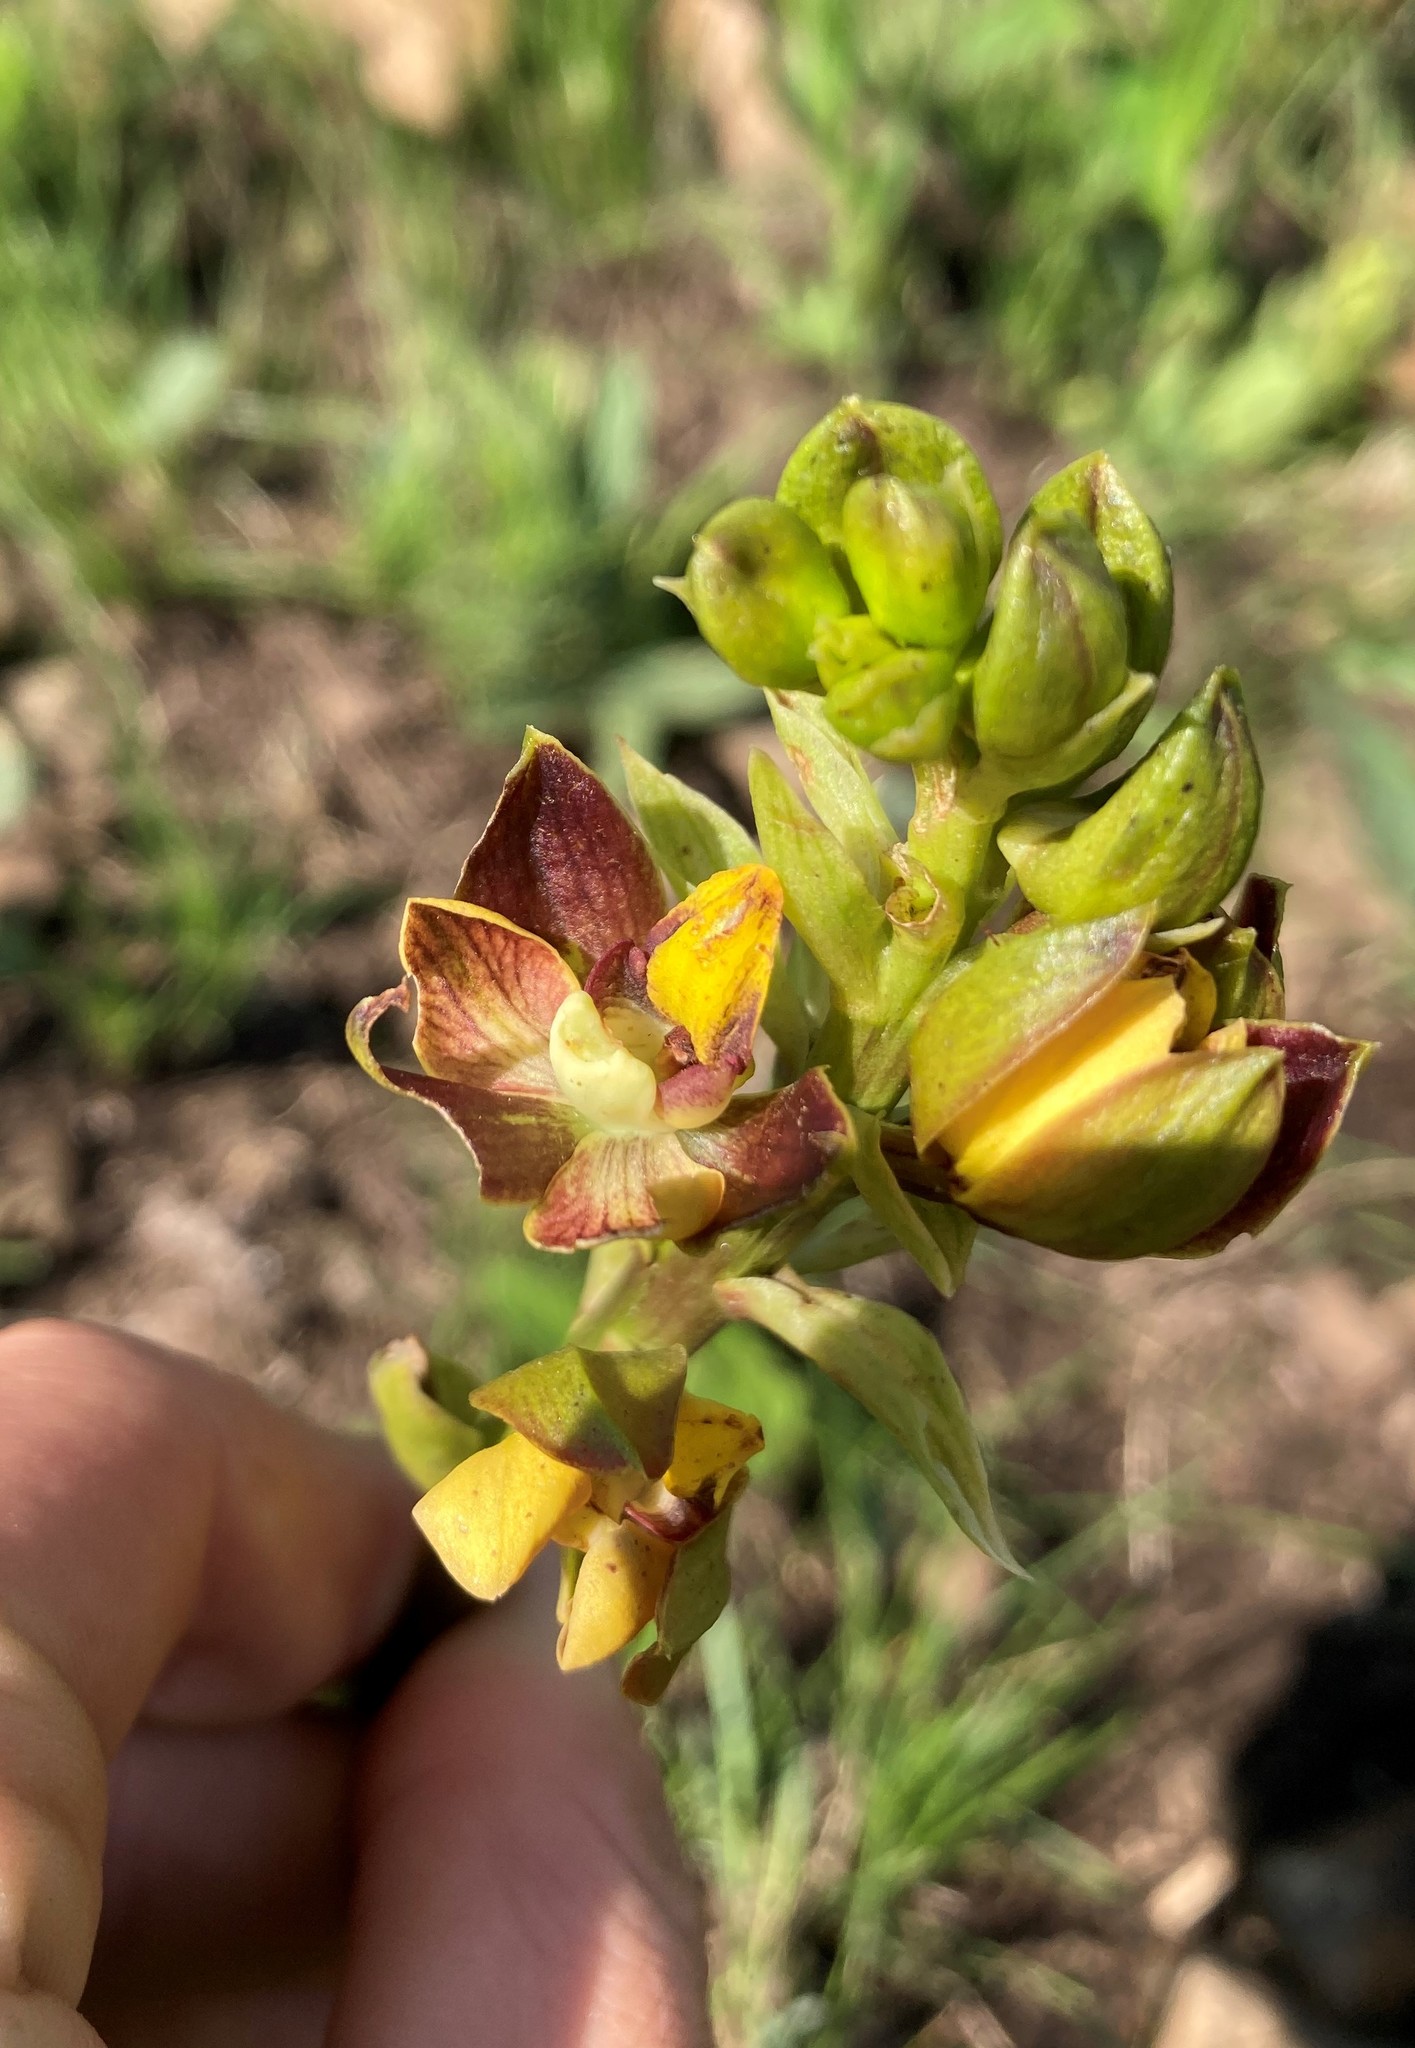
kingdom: Plantae
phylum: Tracheophyta
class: Liliopsida
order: Asparagales
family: Orchidaceae
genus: Eulophia
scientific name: Eulophia parviflora
